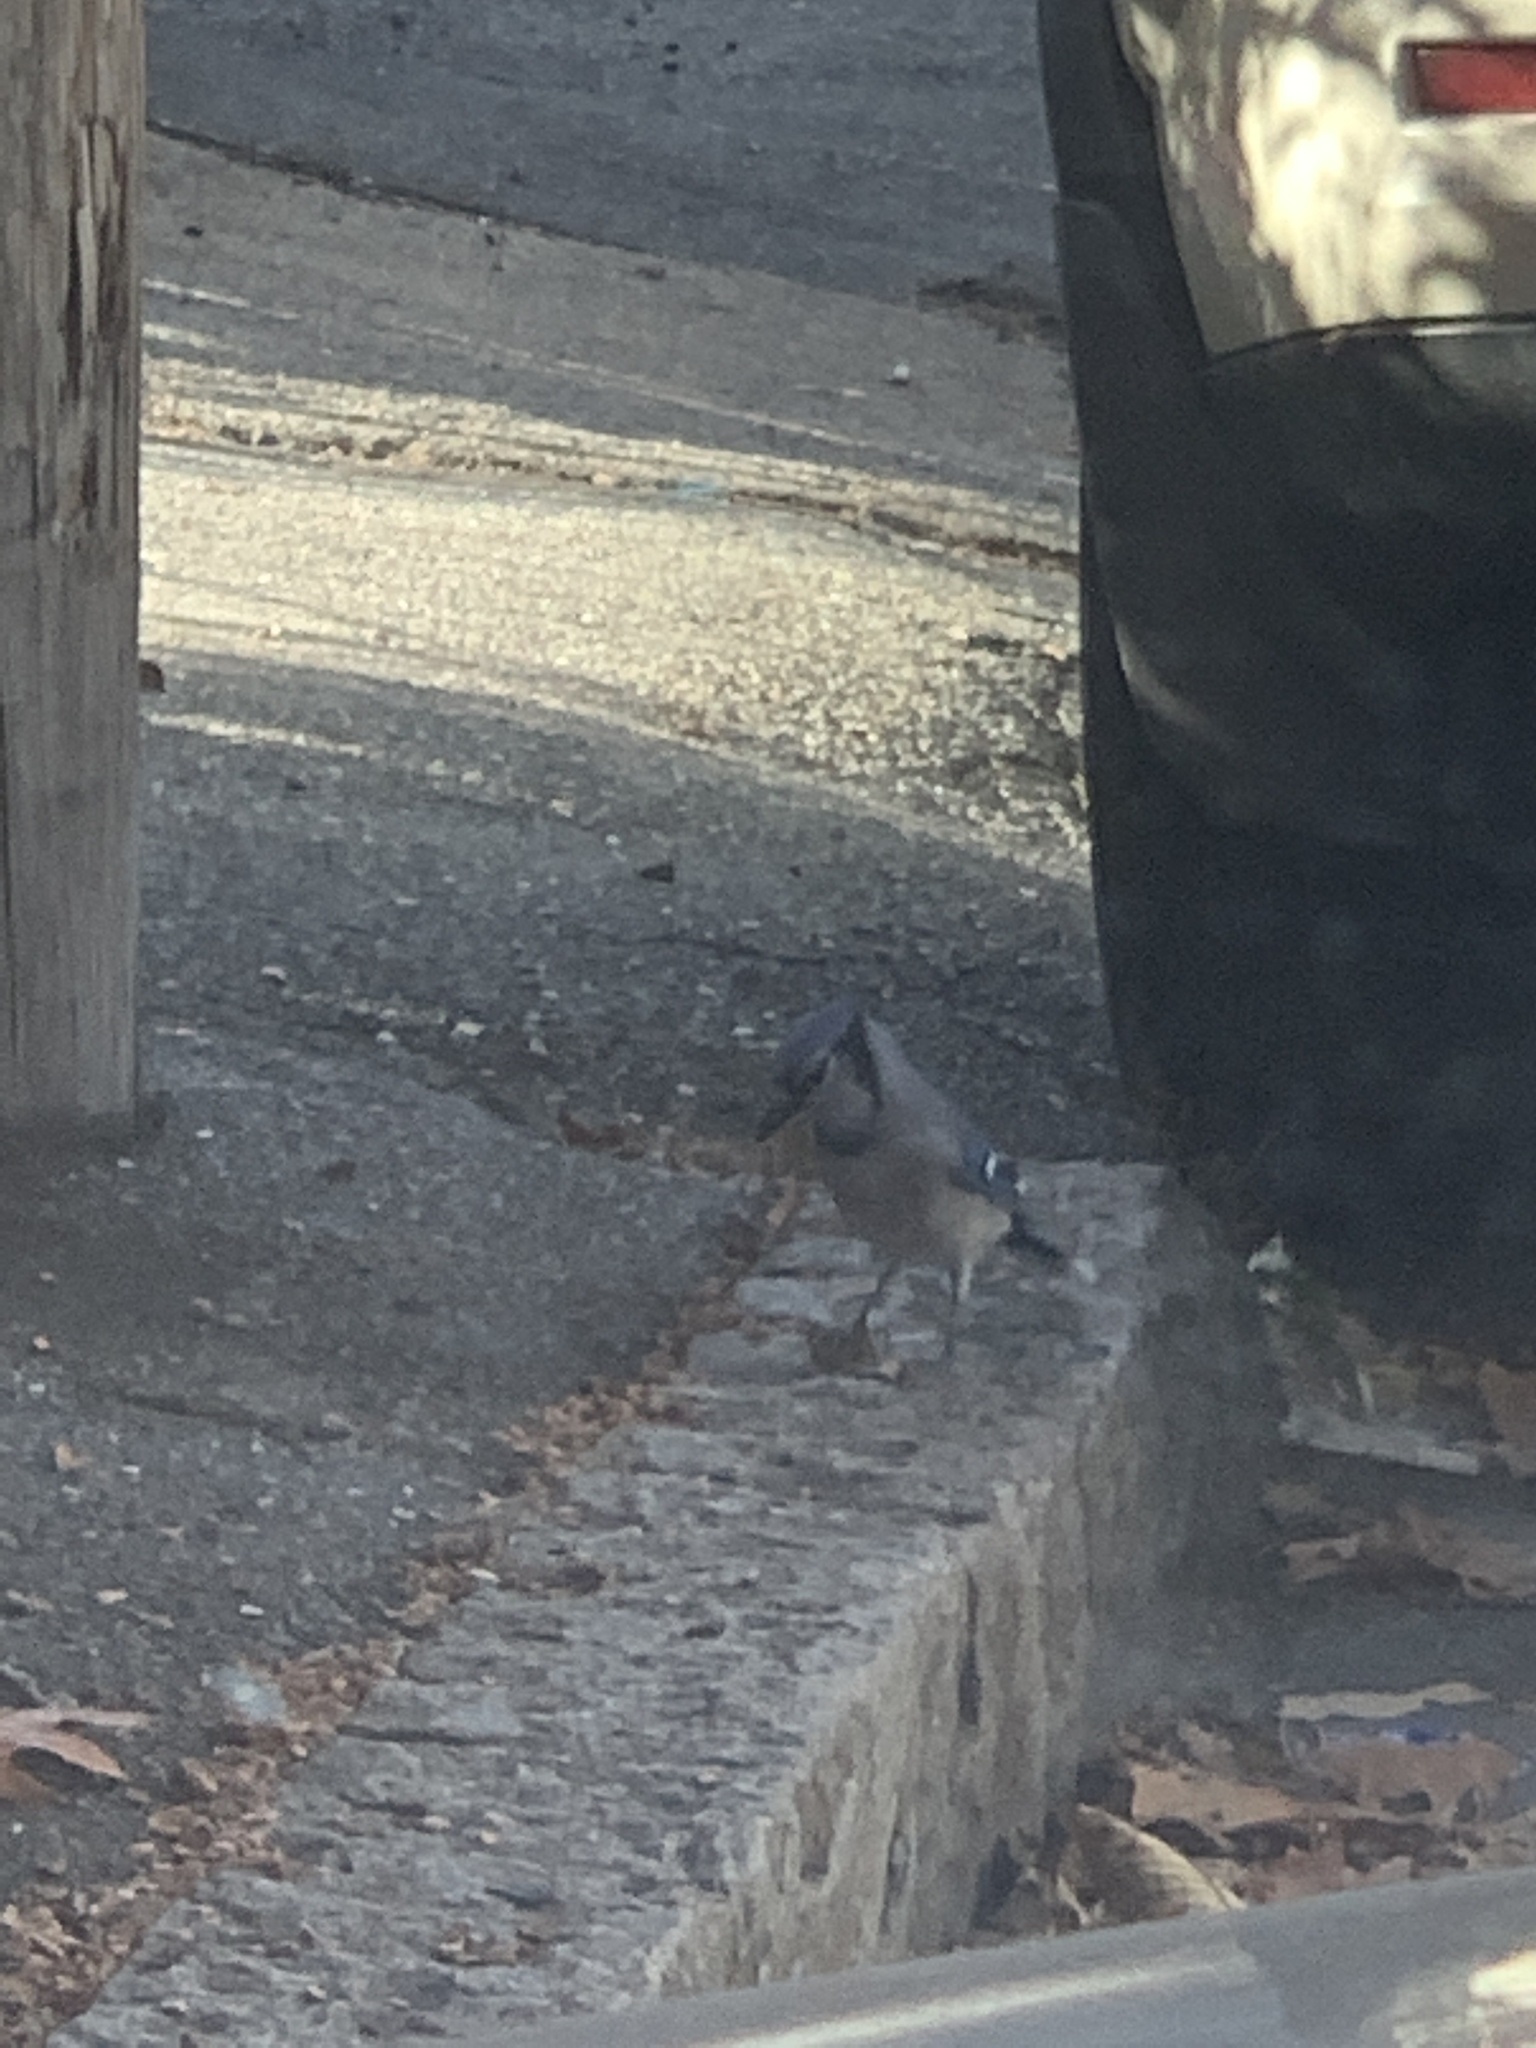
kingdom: Animalia
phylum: Chordata
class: Aves
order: Passeriformes
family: Corvidae
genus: Cyanocitta
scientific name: Cyanocitta cristata
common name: Blue jay
